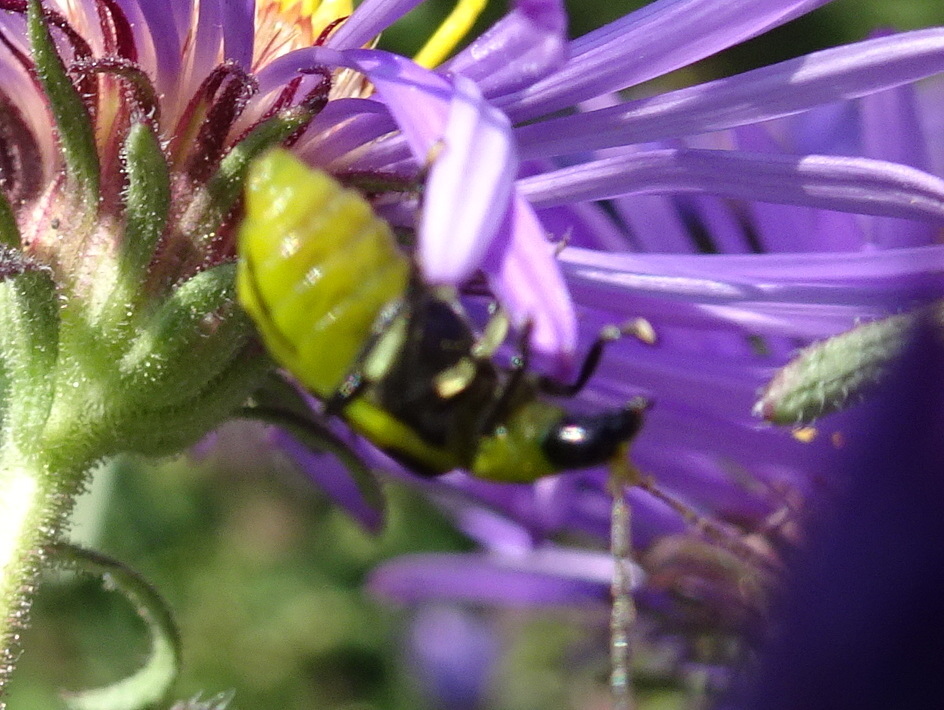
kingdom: Animalia
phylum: Arthropoda
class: Insecta
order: Coleoptera
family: Chrysomelidae
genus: Diabrotica
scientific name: Diabrotica undecimpunctata
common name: Spotted cucumber beetle
